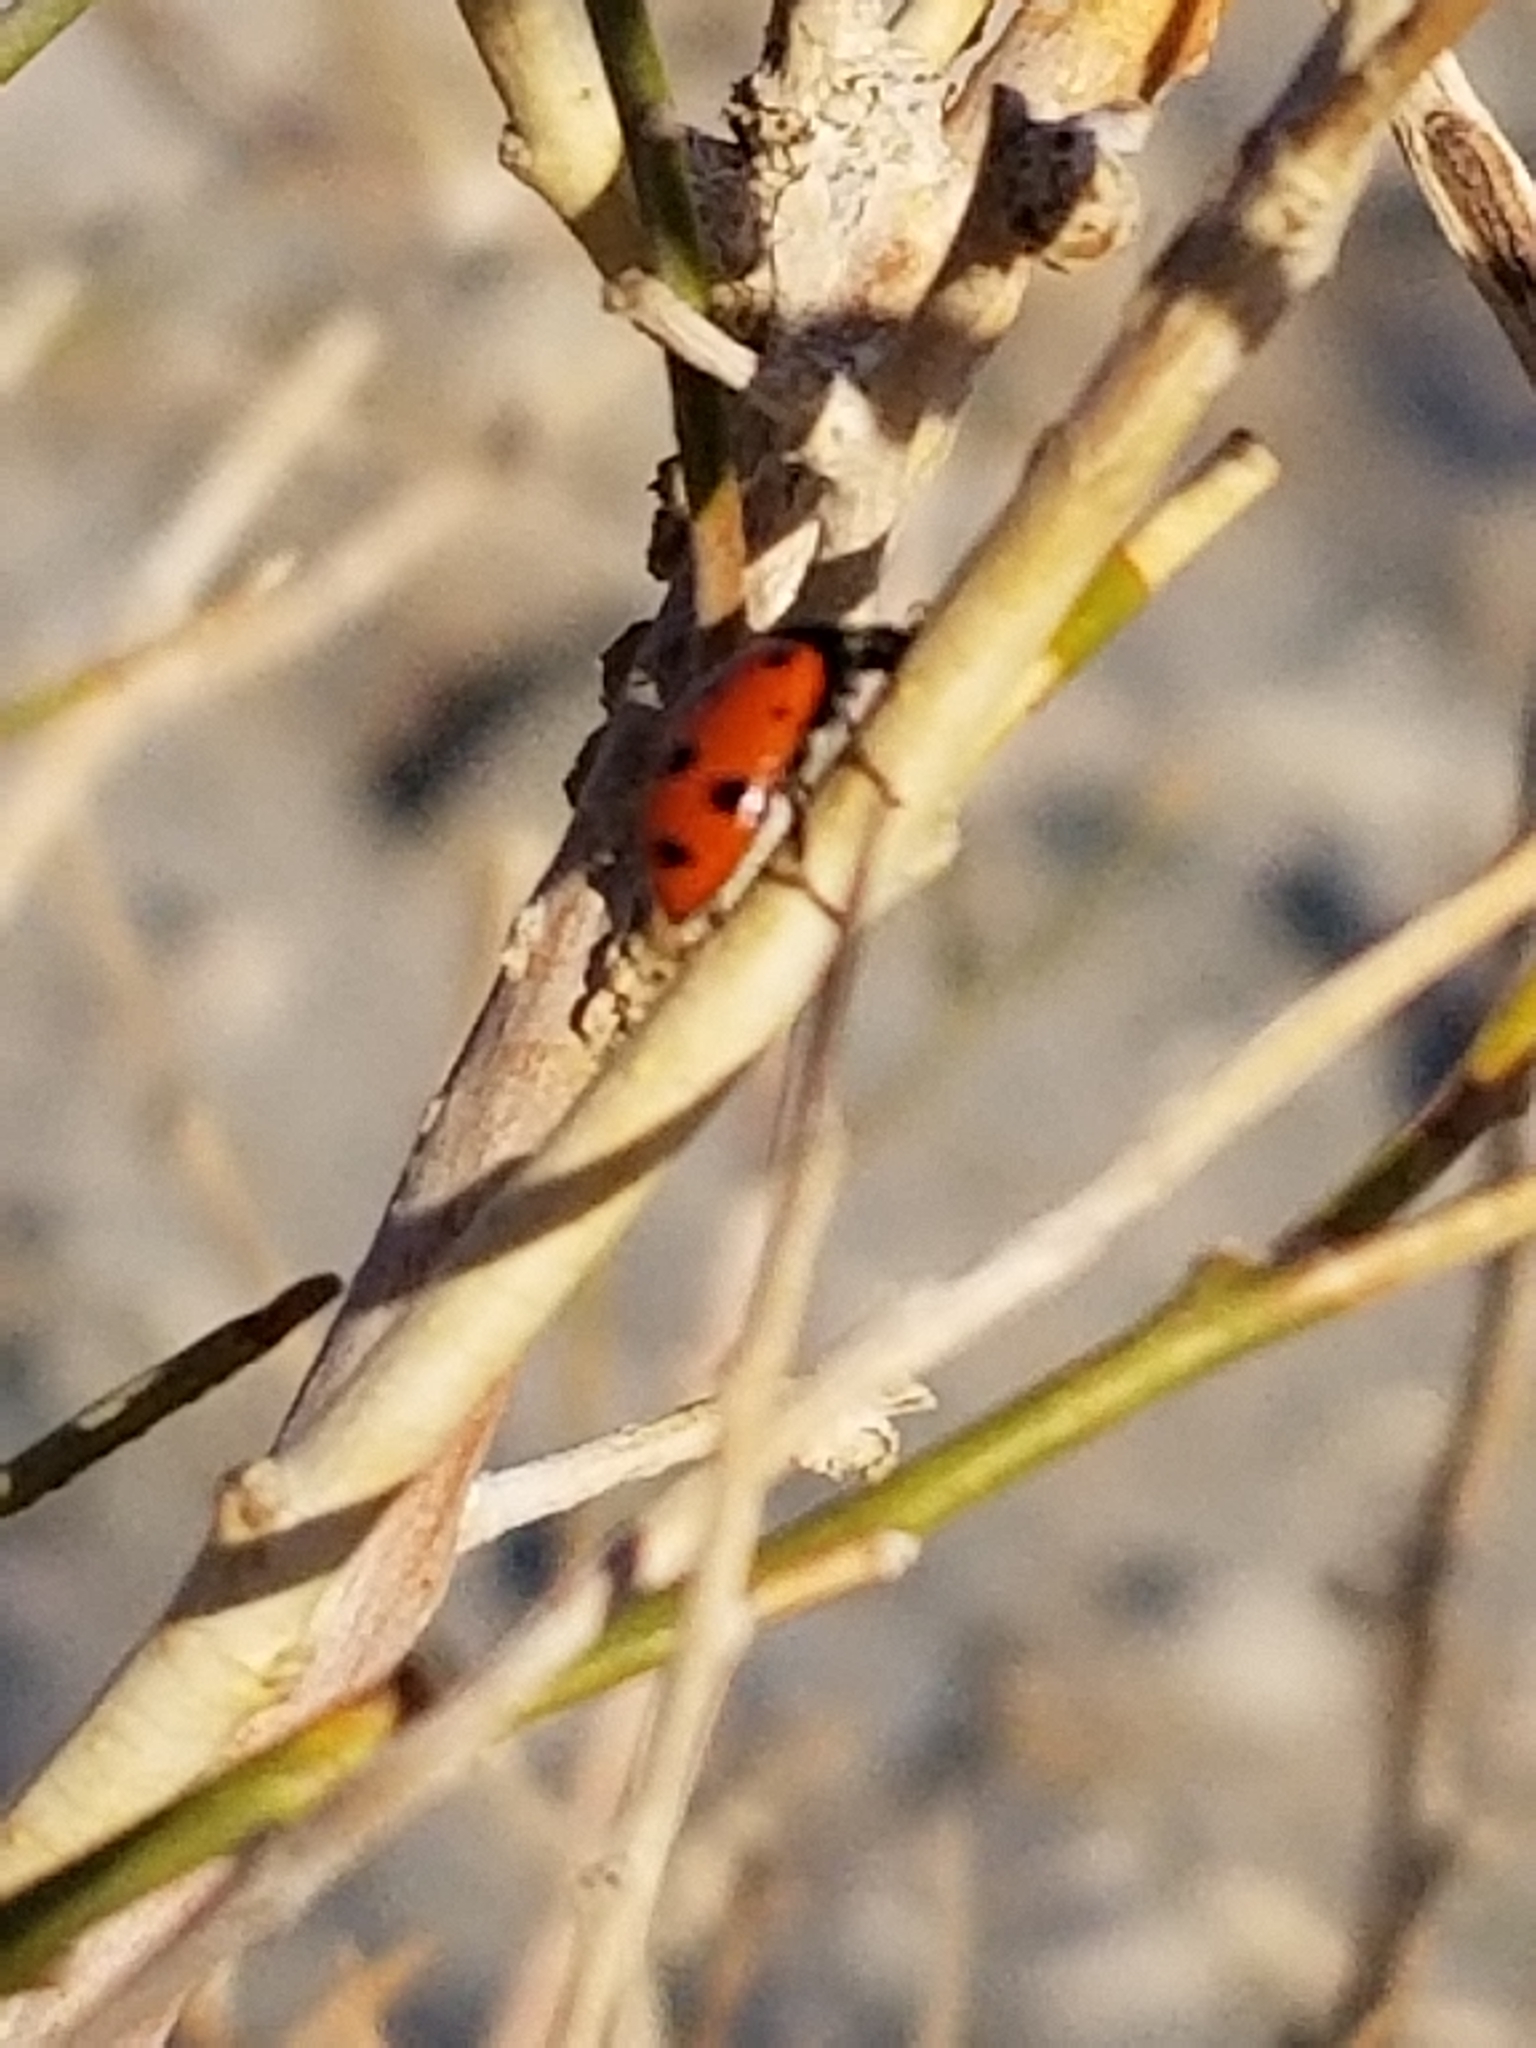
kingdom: Animalia
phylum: Arthropoda
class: Insecta
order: Coleoptera
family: Coccinellidae
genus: Hippodamia
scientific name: Hippodamia convergens
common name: Convergent lady beetle
